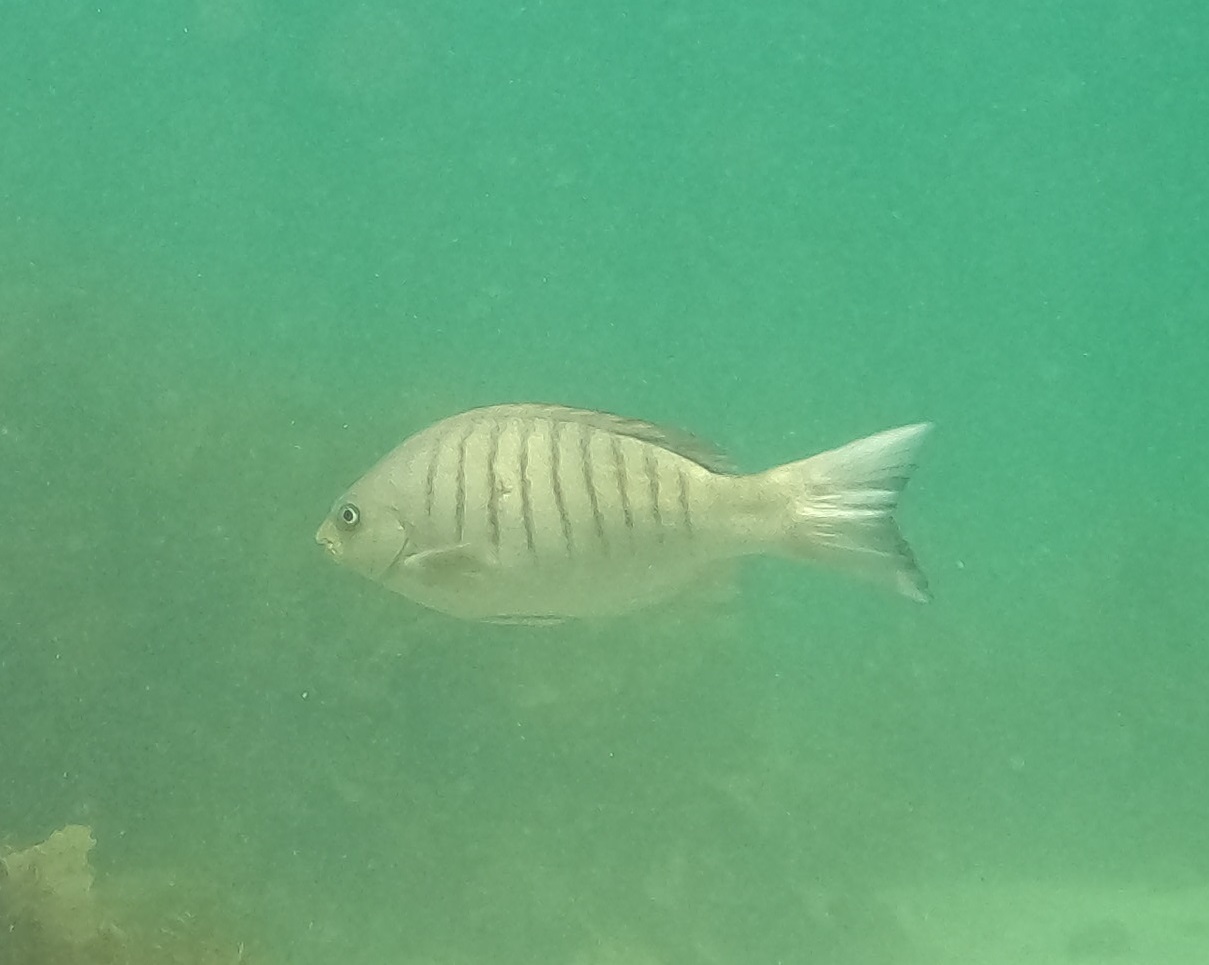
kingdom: Animalia
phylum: Chordata
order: Perciformes
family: Kyphosidae
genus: Girella
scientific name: Girella tricuspidata
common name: Parore
